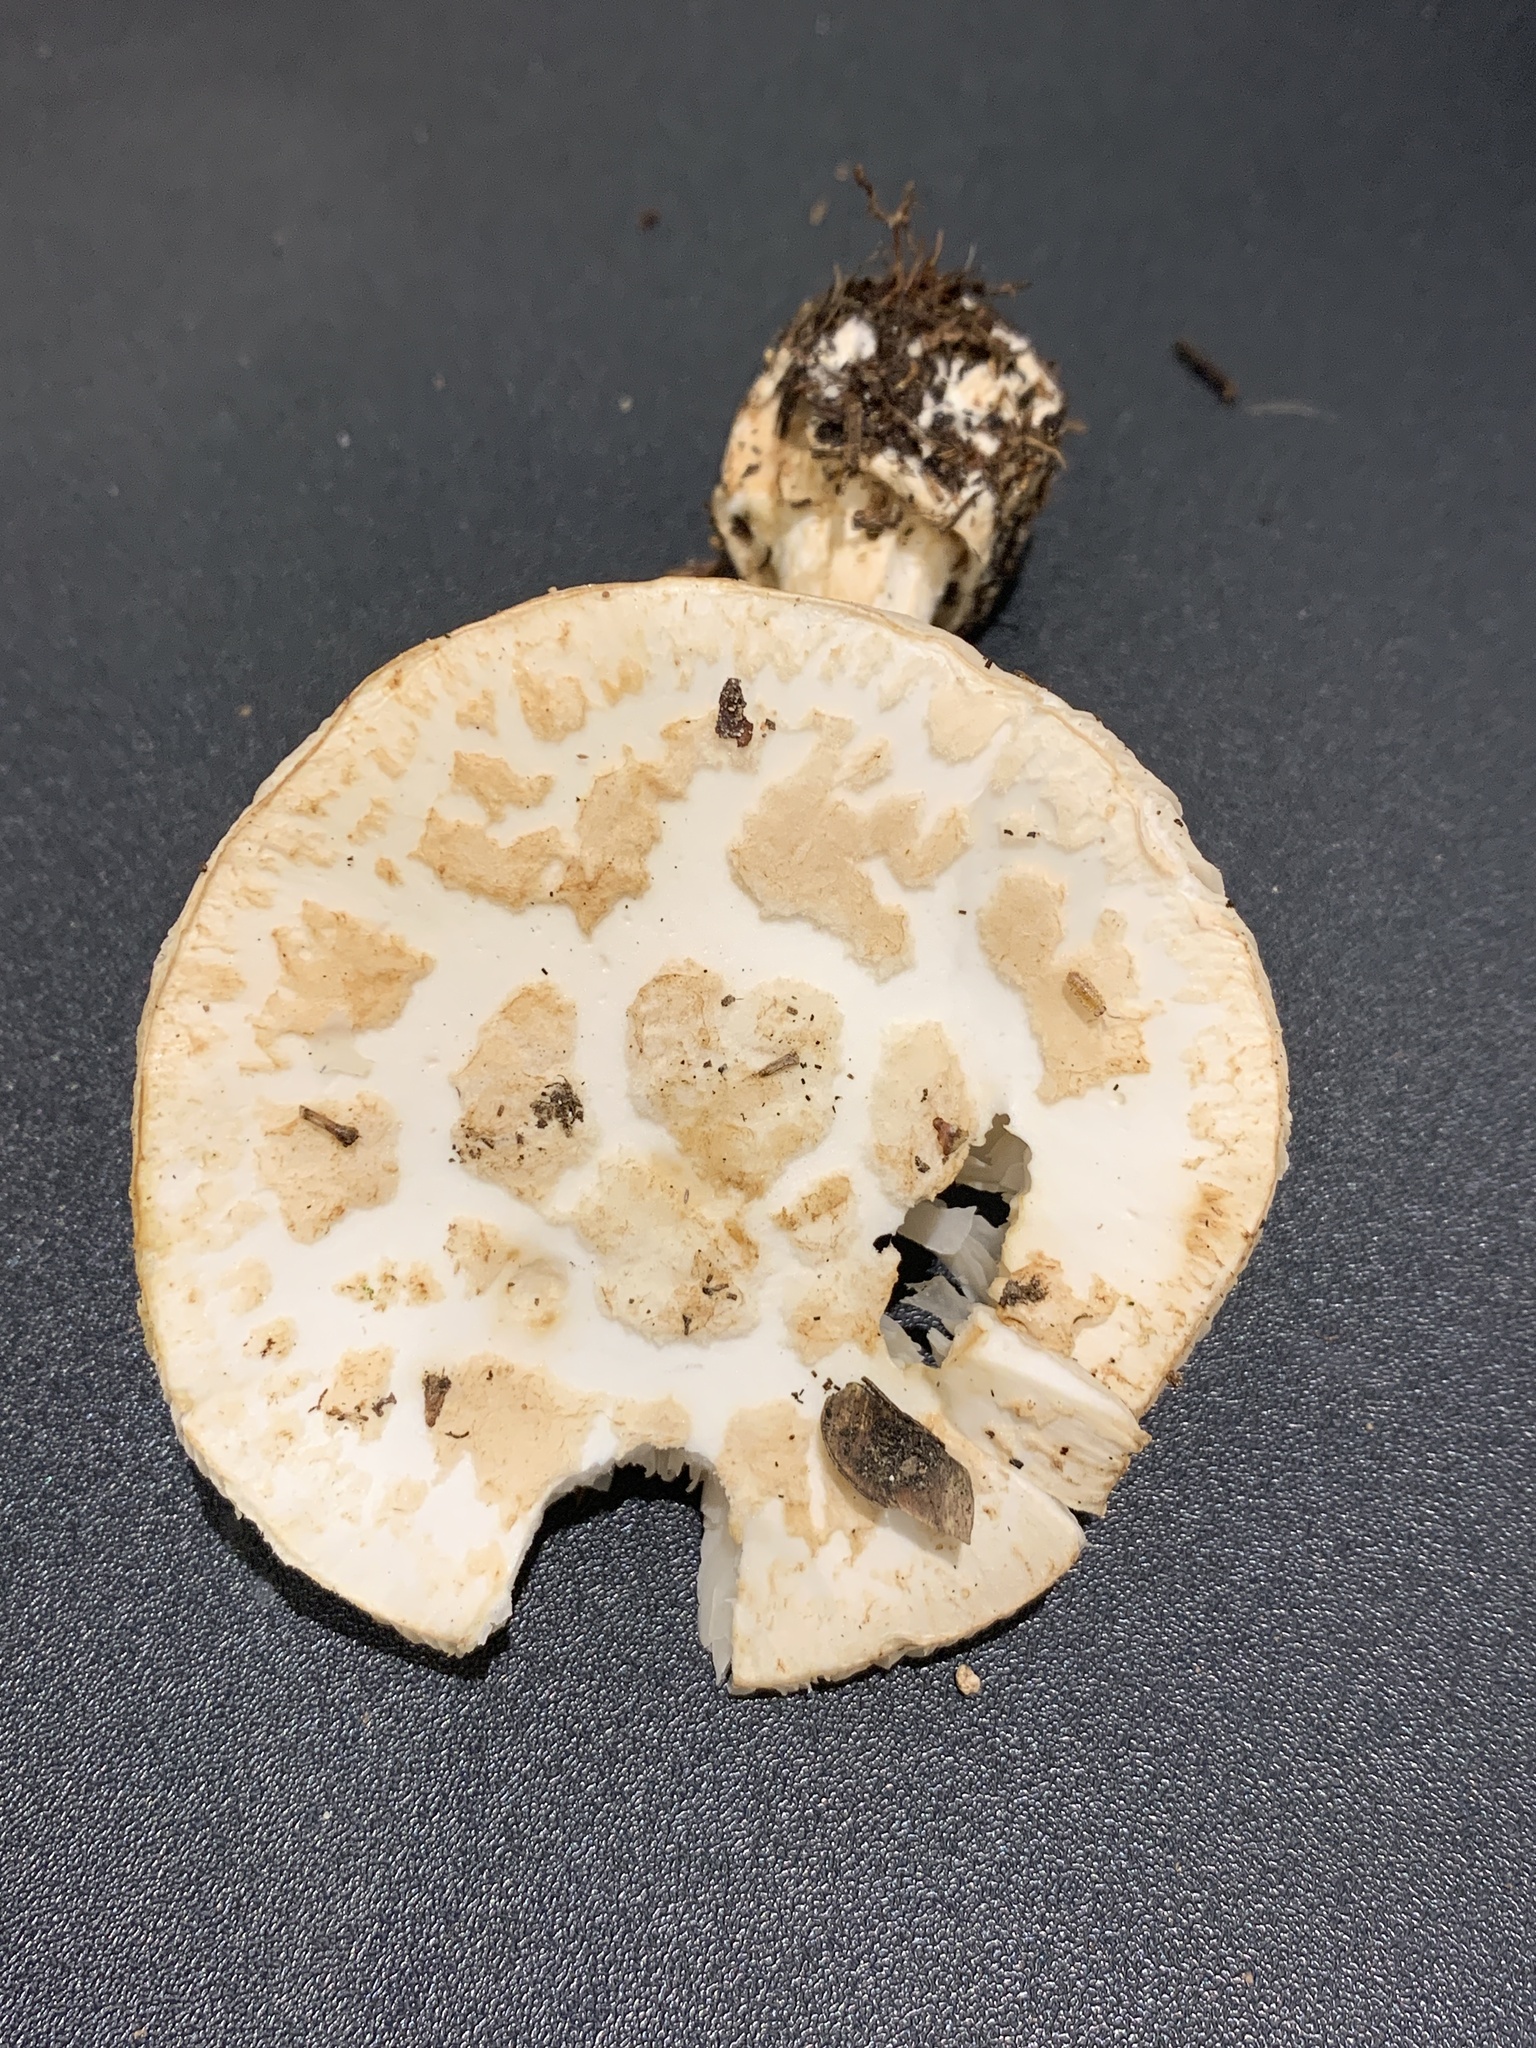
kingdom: Fungi
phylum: Basidiomycota
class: Agaricomycetes
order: Agaricales
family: Amanitaceae
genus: Amanita
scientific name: Amanita citrina
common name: False death-cap
